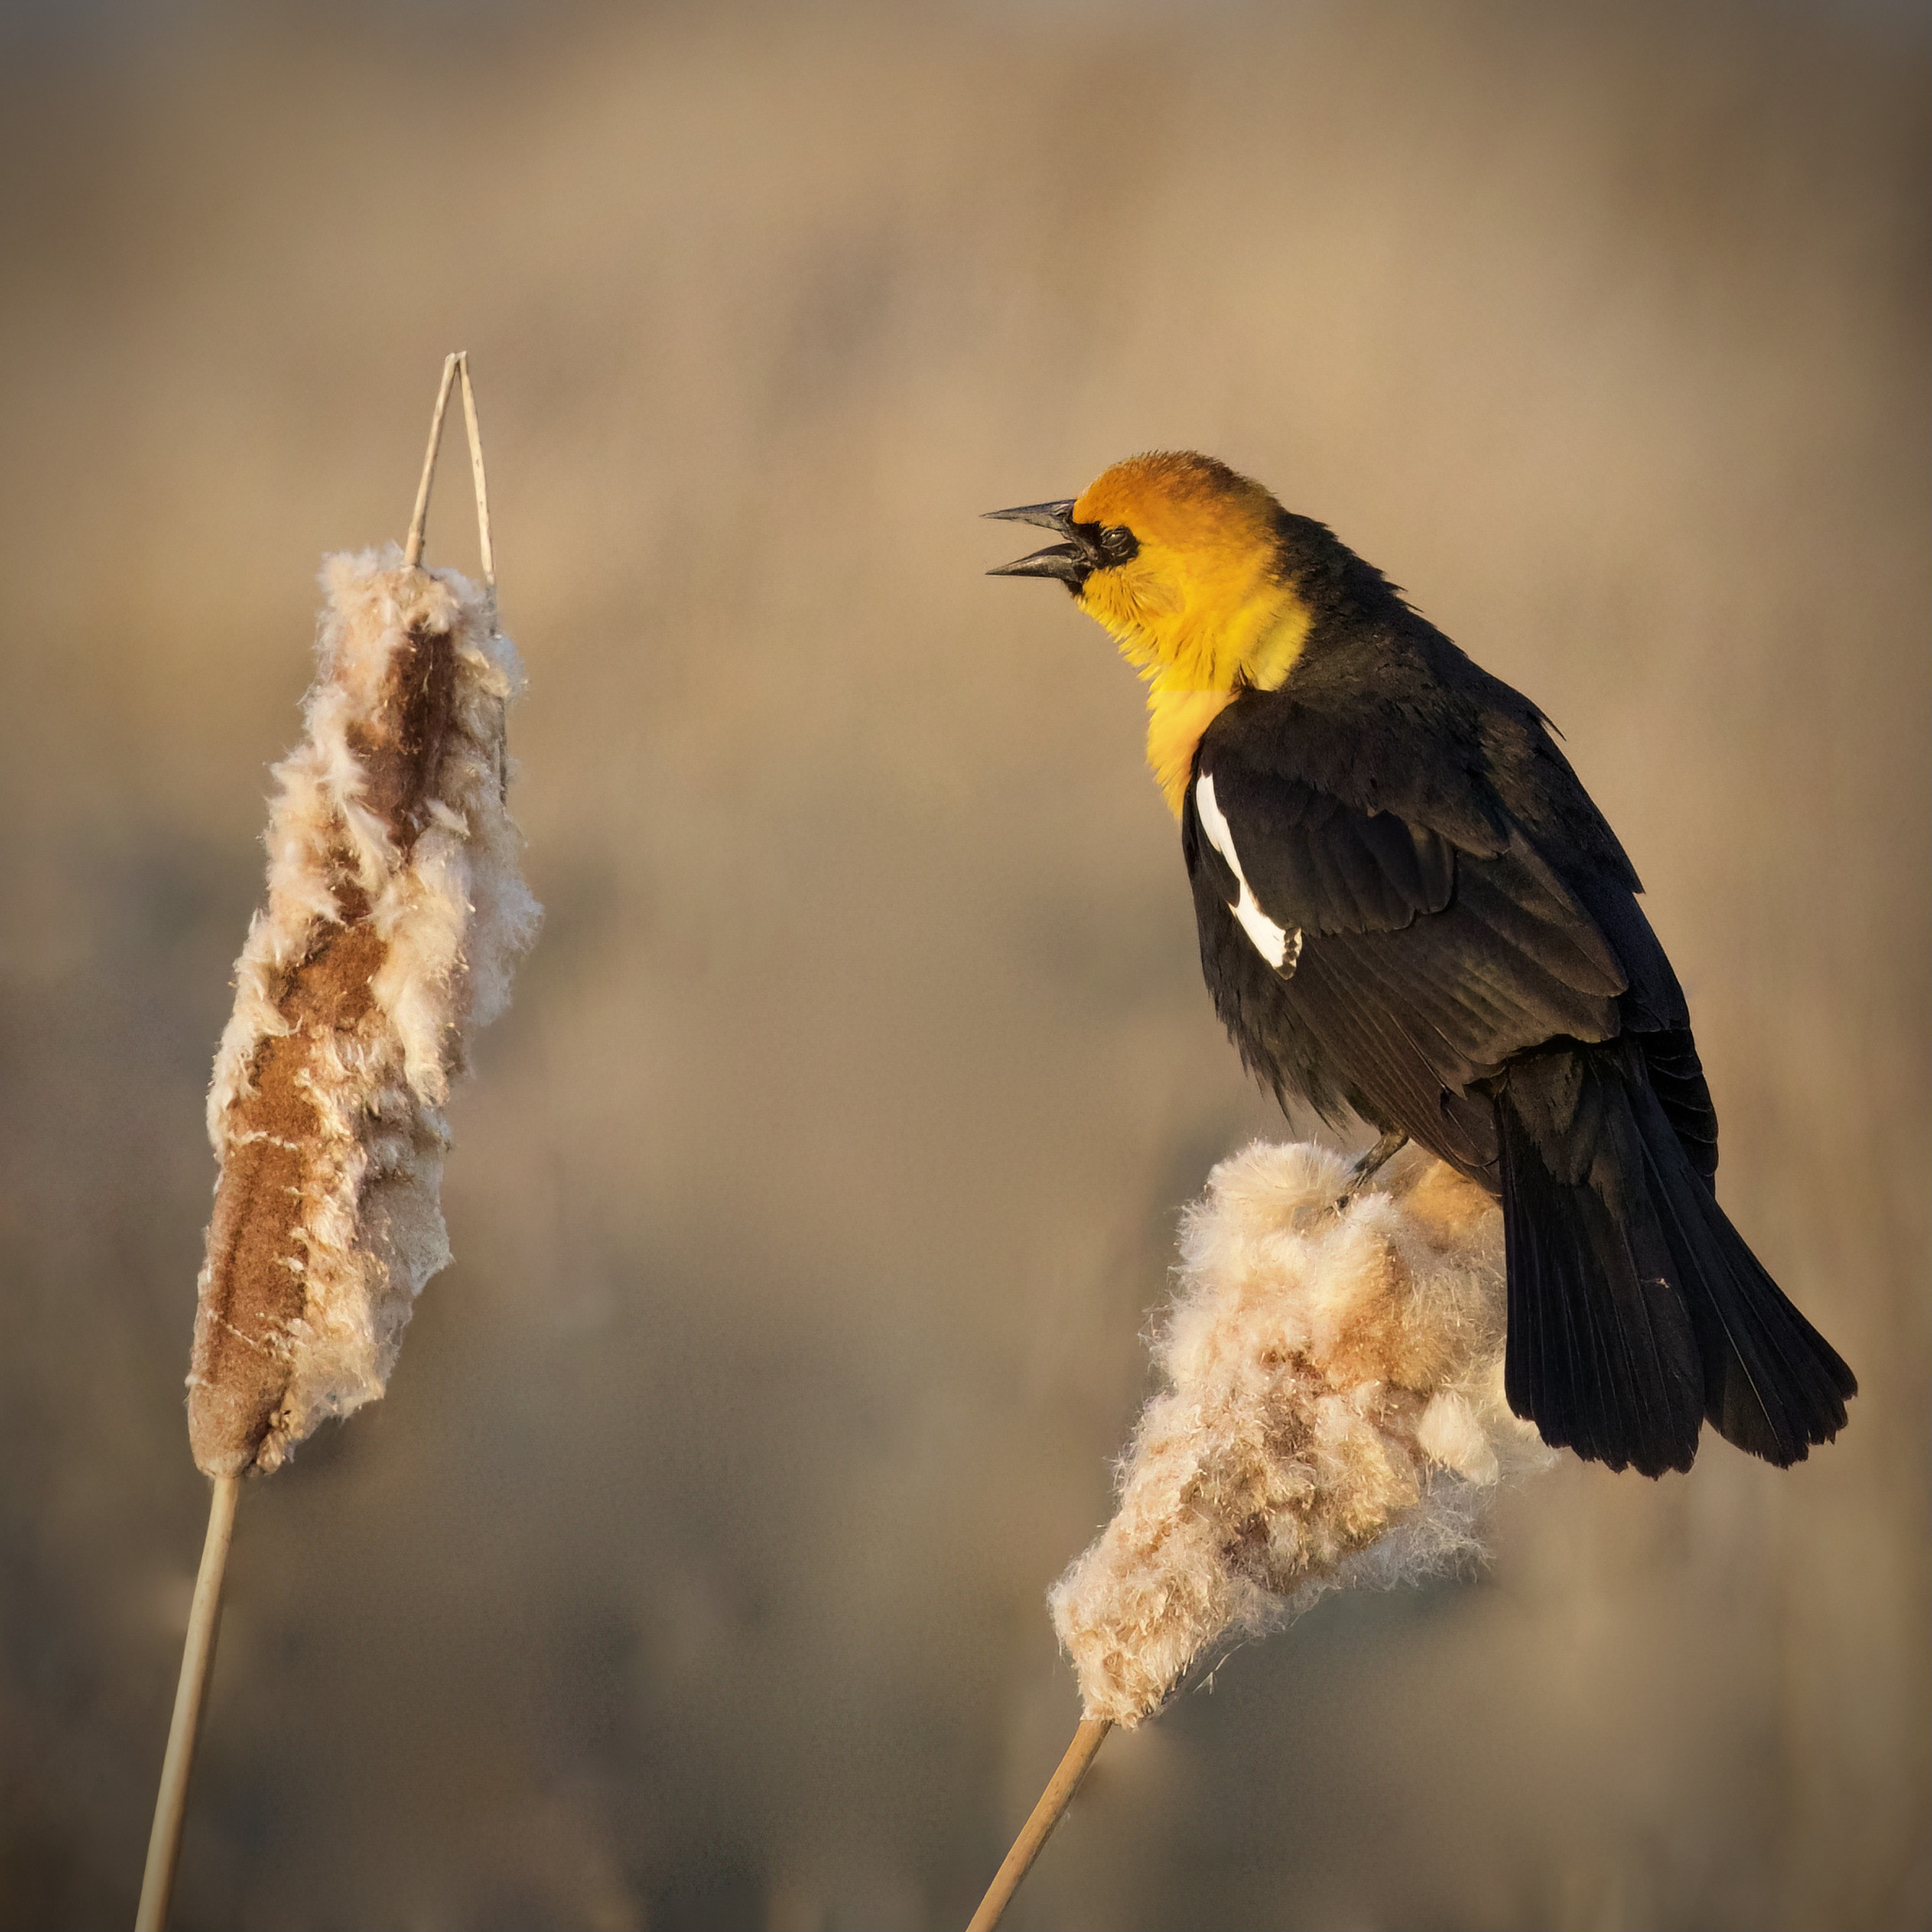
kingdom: Animalia
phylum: Chordata
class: Aves
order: Passeriformes
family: Icteridae
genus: Xanthocephalus
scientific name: Xanthocephalus xanthocephalus
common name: Yellow-headed blackbird
